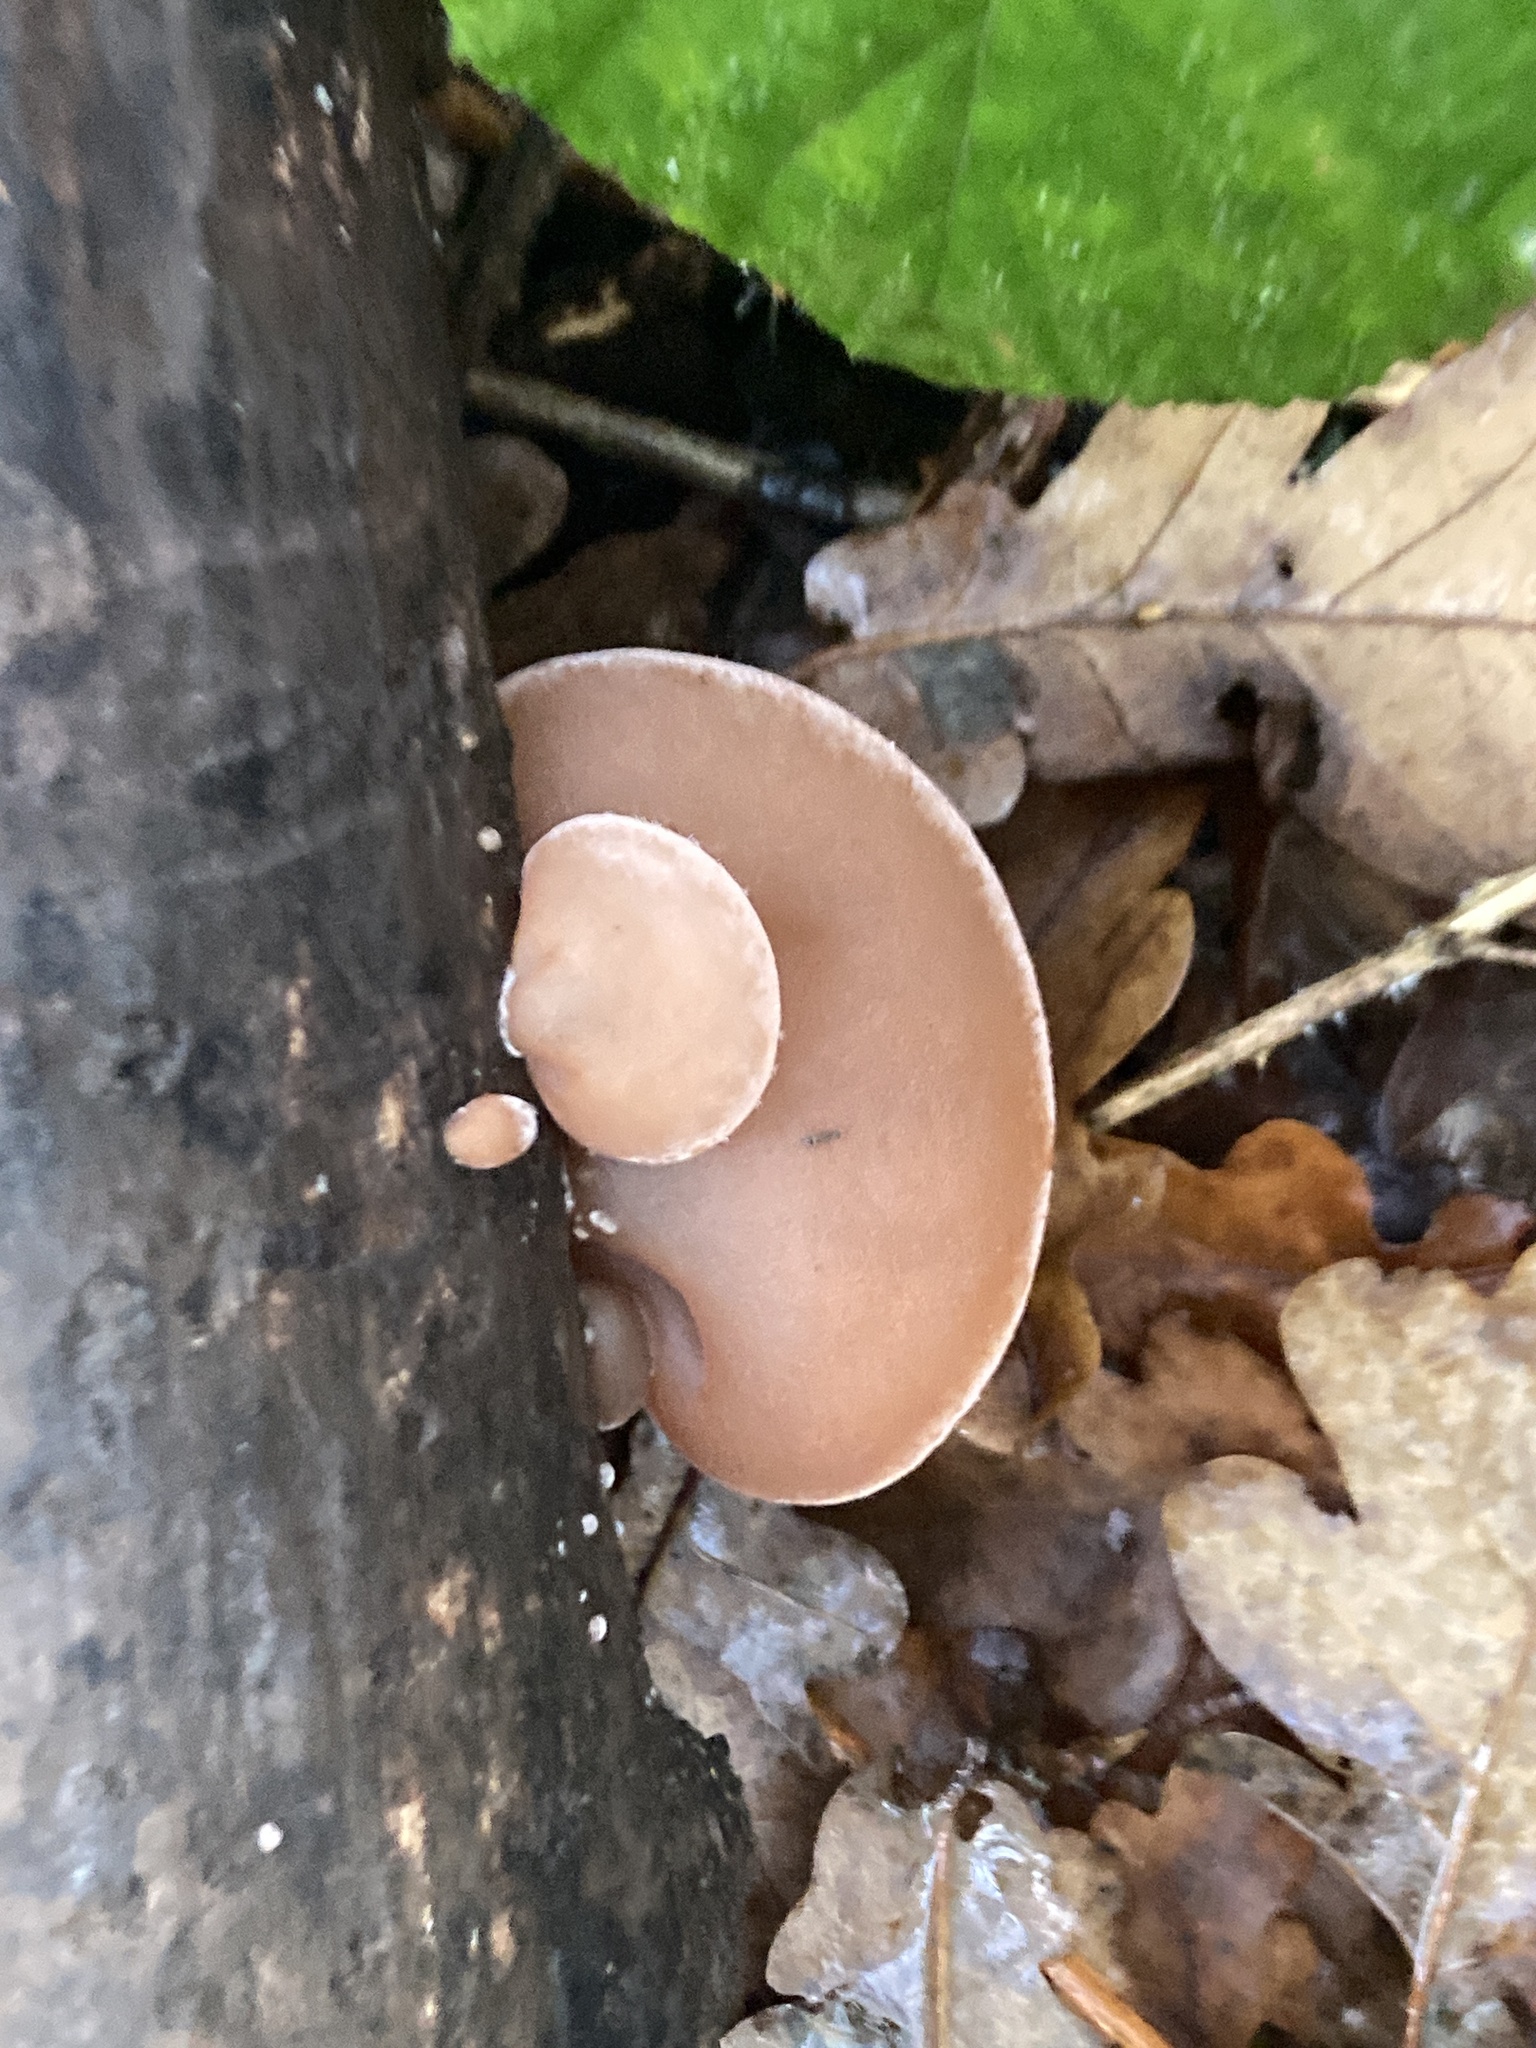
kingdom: Fungi
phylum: Basidiomycota
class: Agaricomycetes
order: Auriculariales
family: Auriculariaceae
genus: Auricularia
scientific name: Auricularia auricula-judae
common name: Jelly ear
